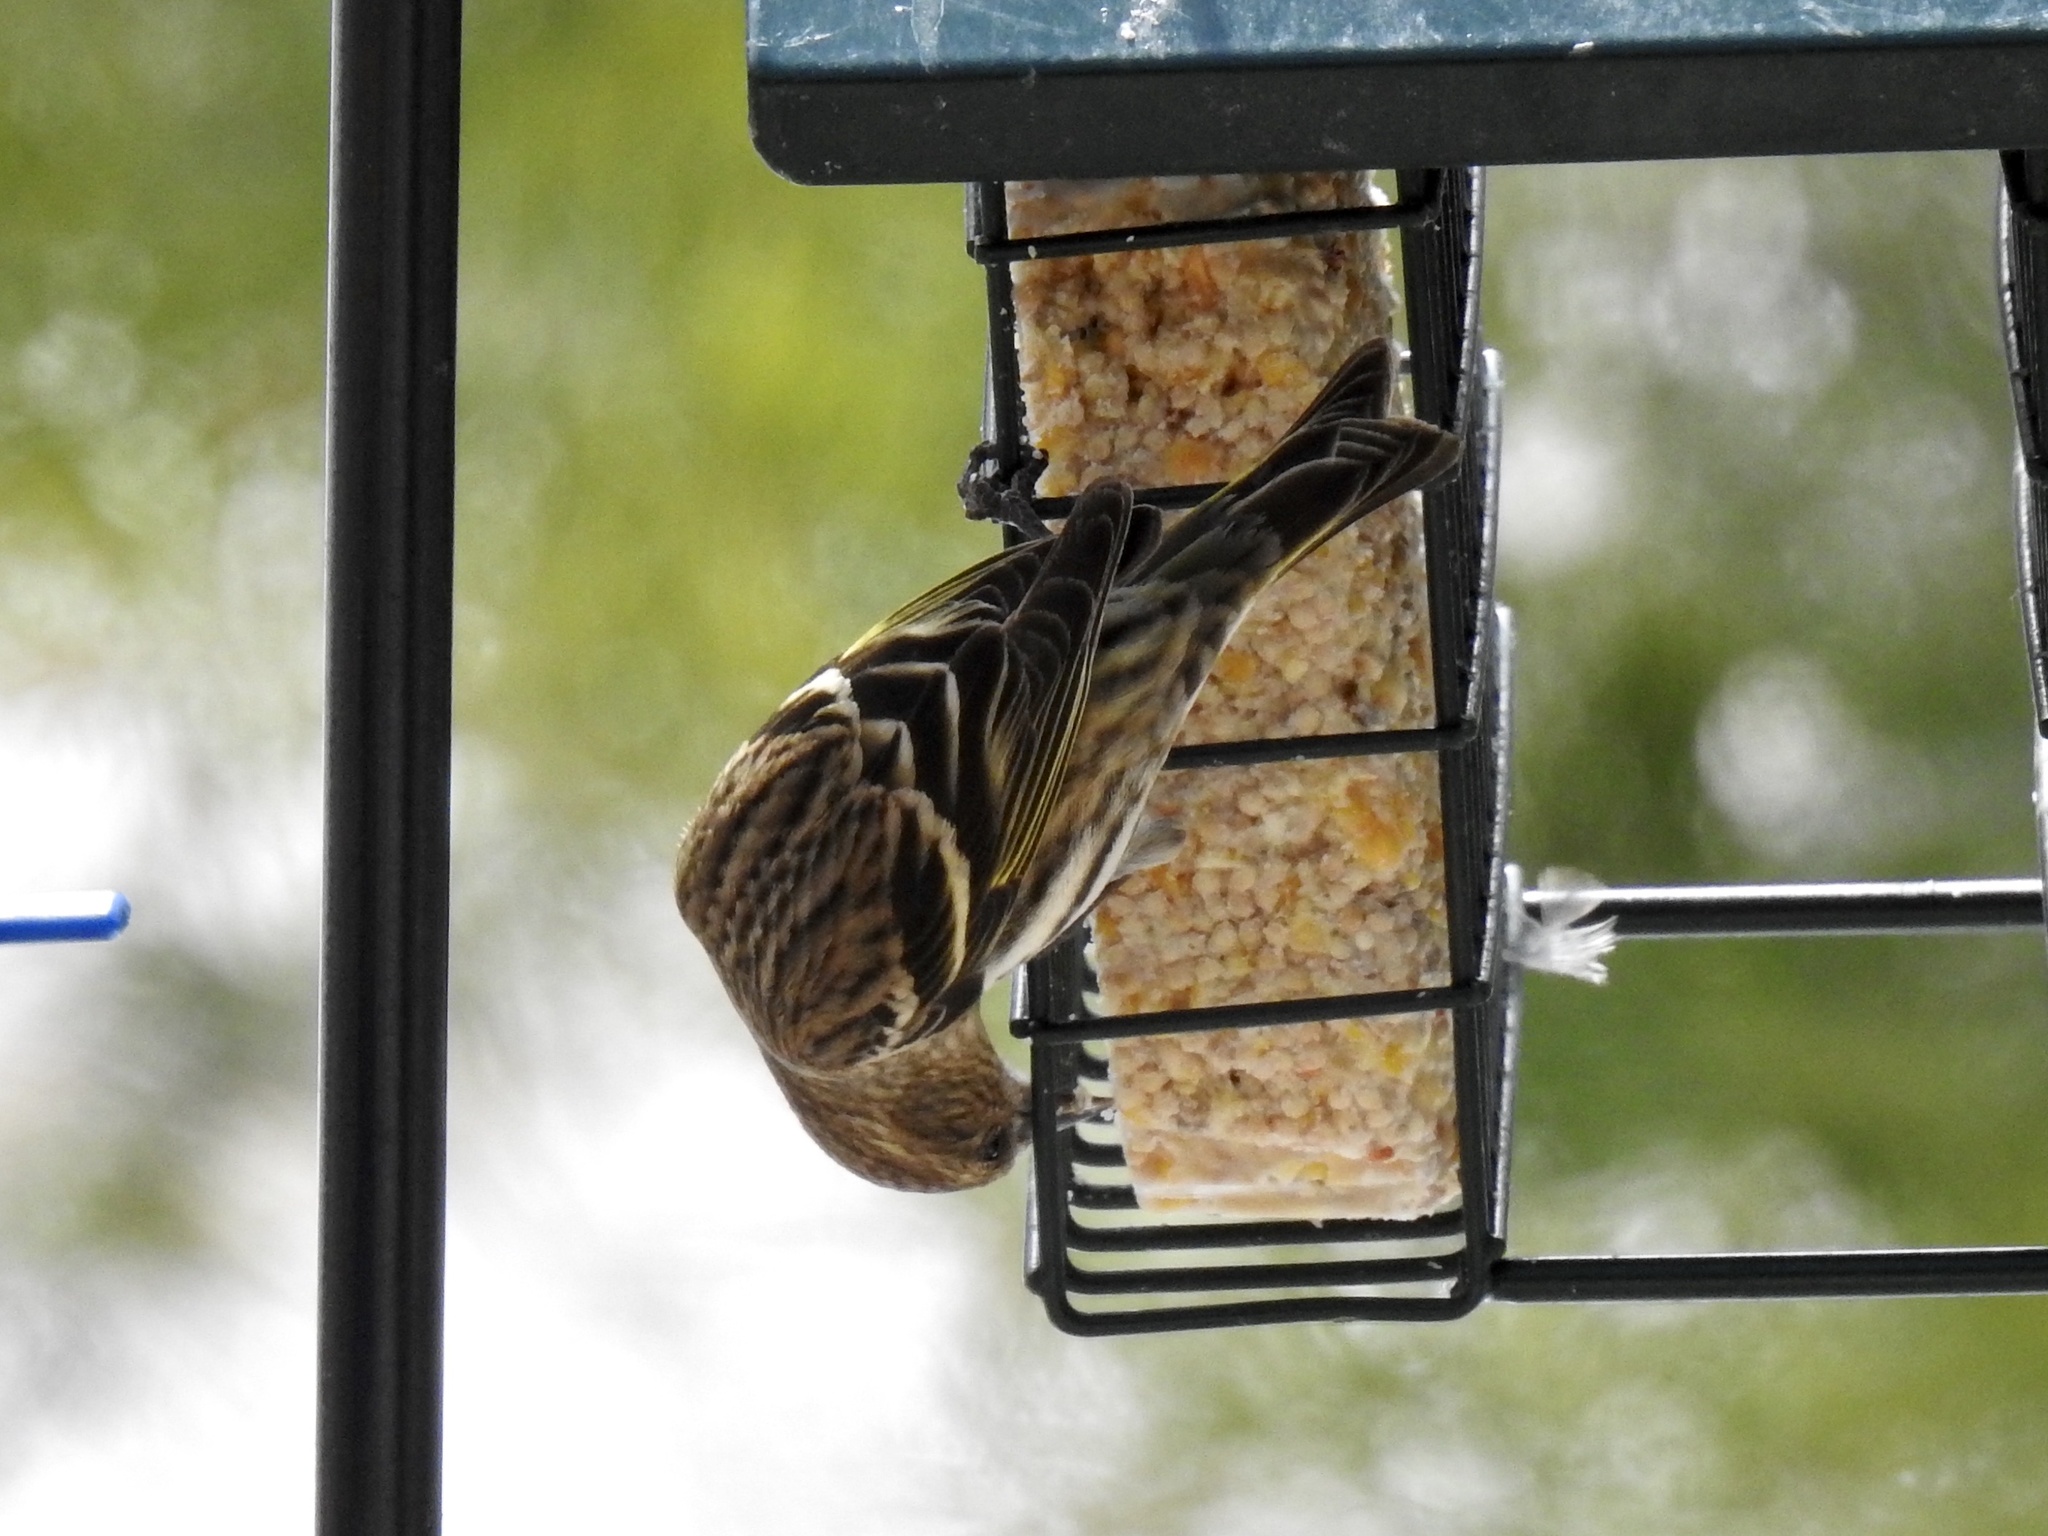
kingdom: Animalia
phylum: Chordata
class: Aves
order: Passeriformes
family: Fringillidae
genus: Spinus
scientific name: Spinus pinus
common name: Pine siskin
